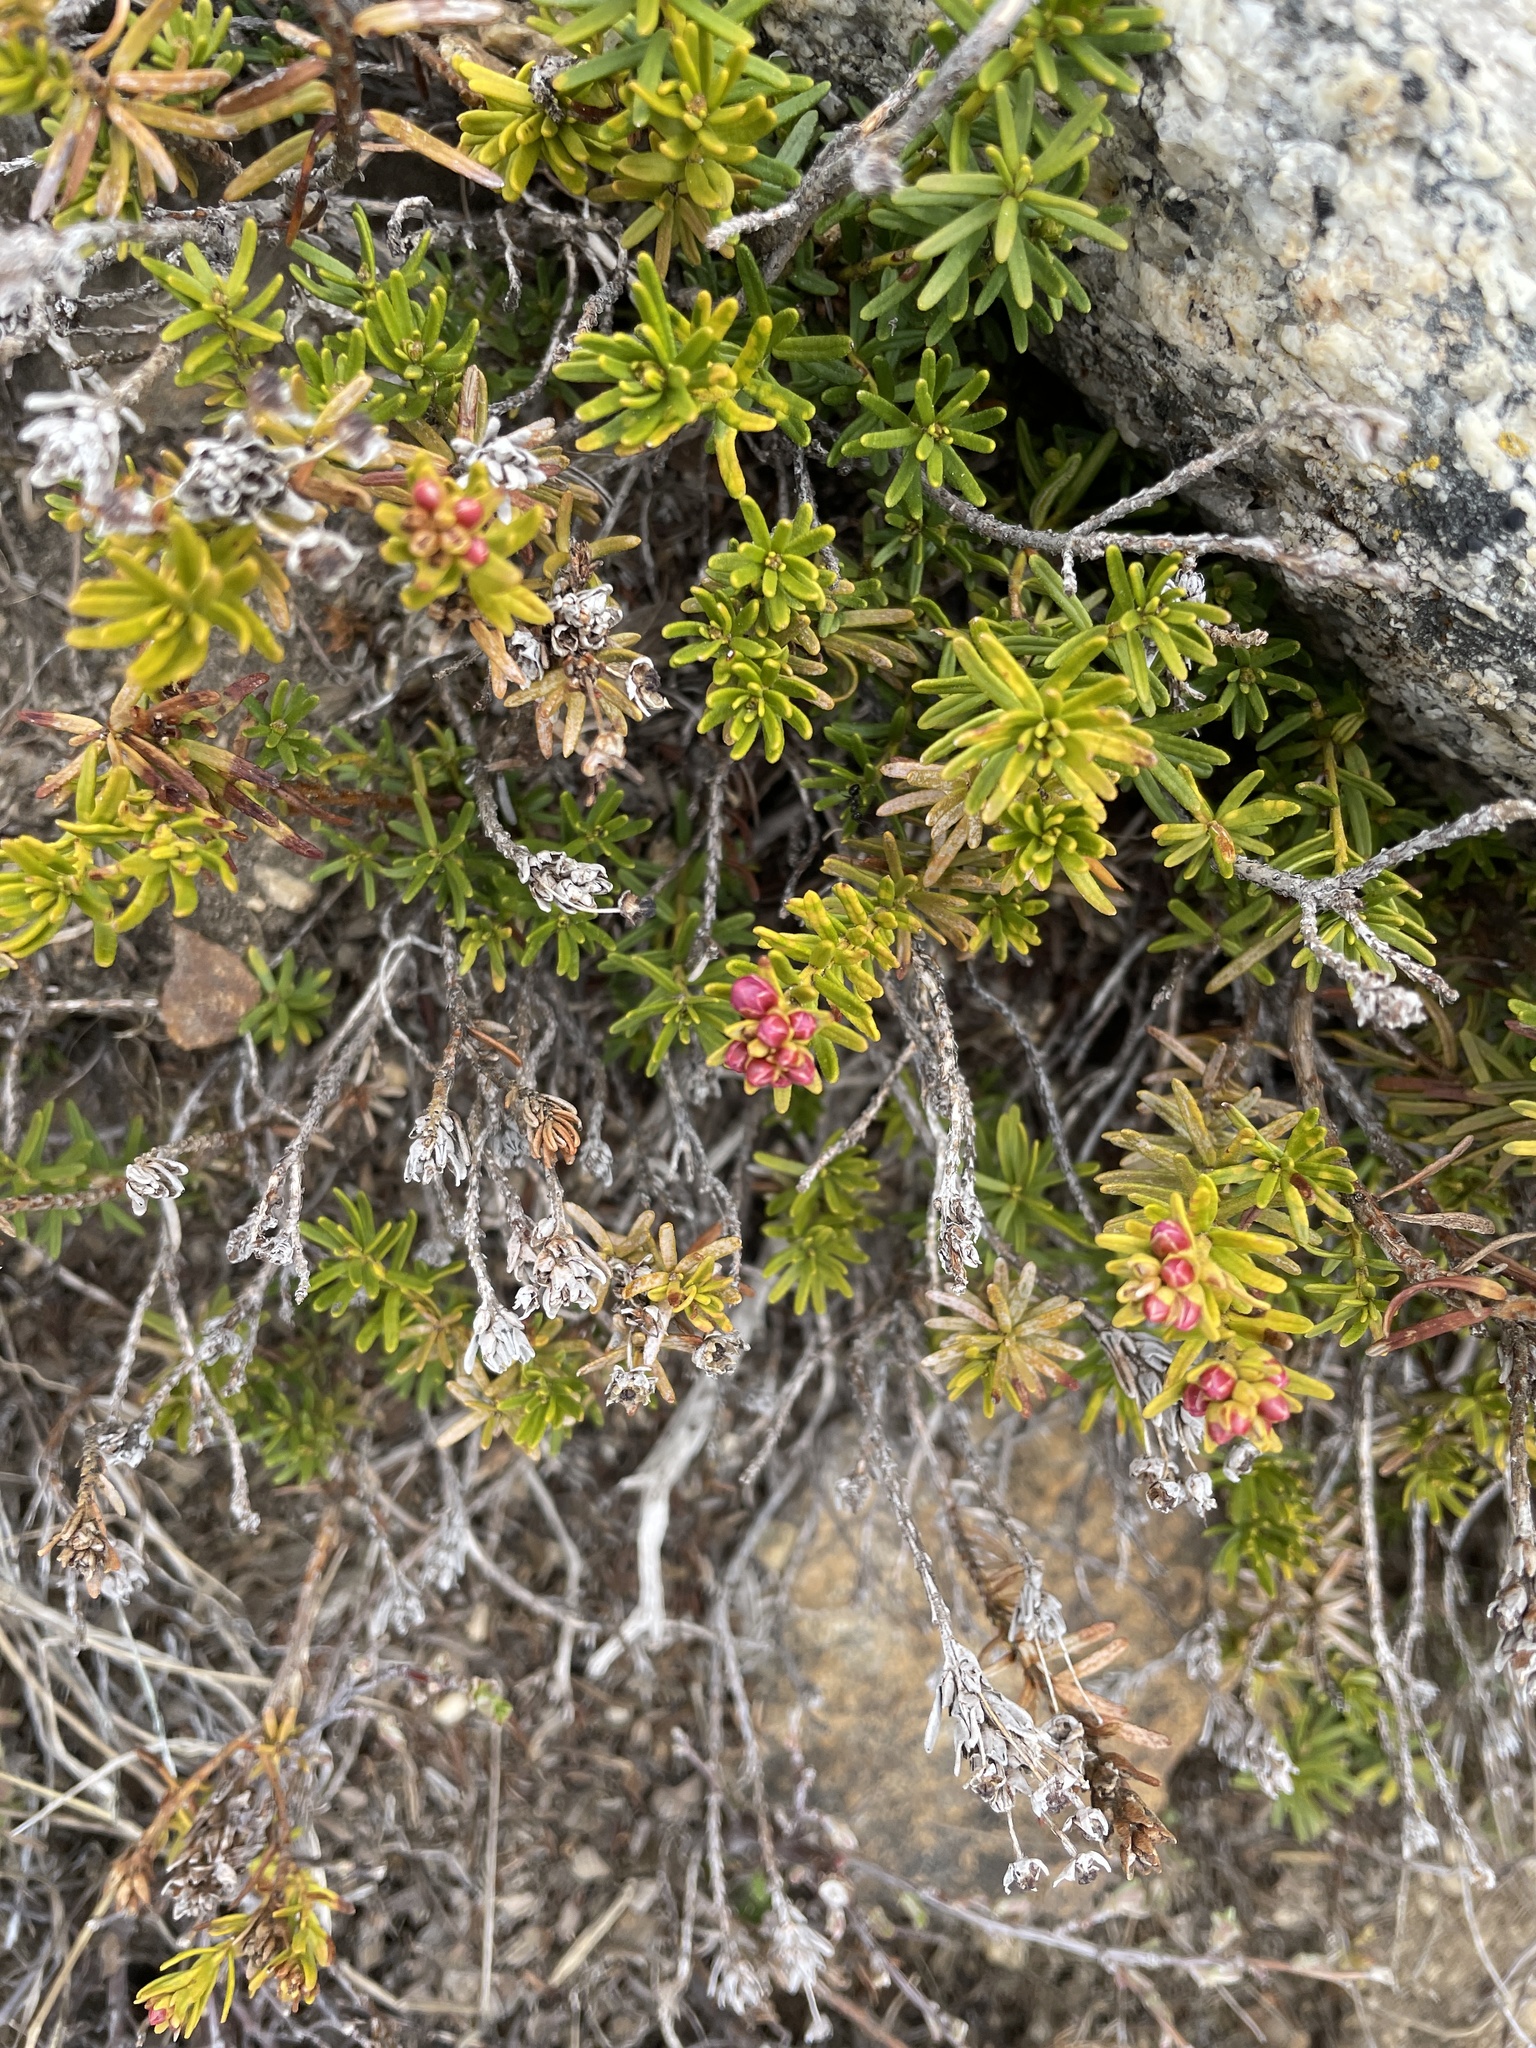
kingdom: Plantae
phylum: Tracheophyta
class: Magnoliopsida
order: Ericales
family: Ericaceae
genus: Phyllodoce
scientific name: Phyllodoce breweri
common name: Brewer's mountain-heather
